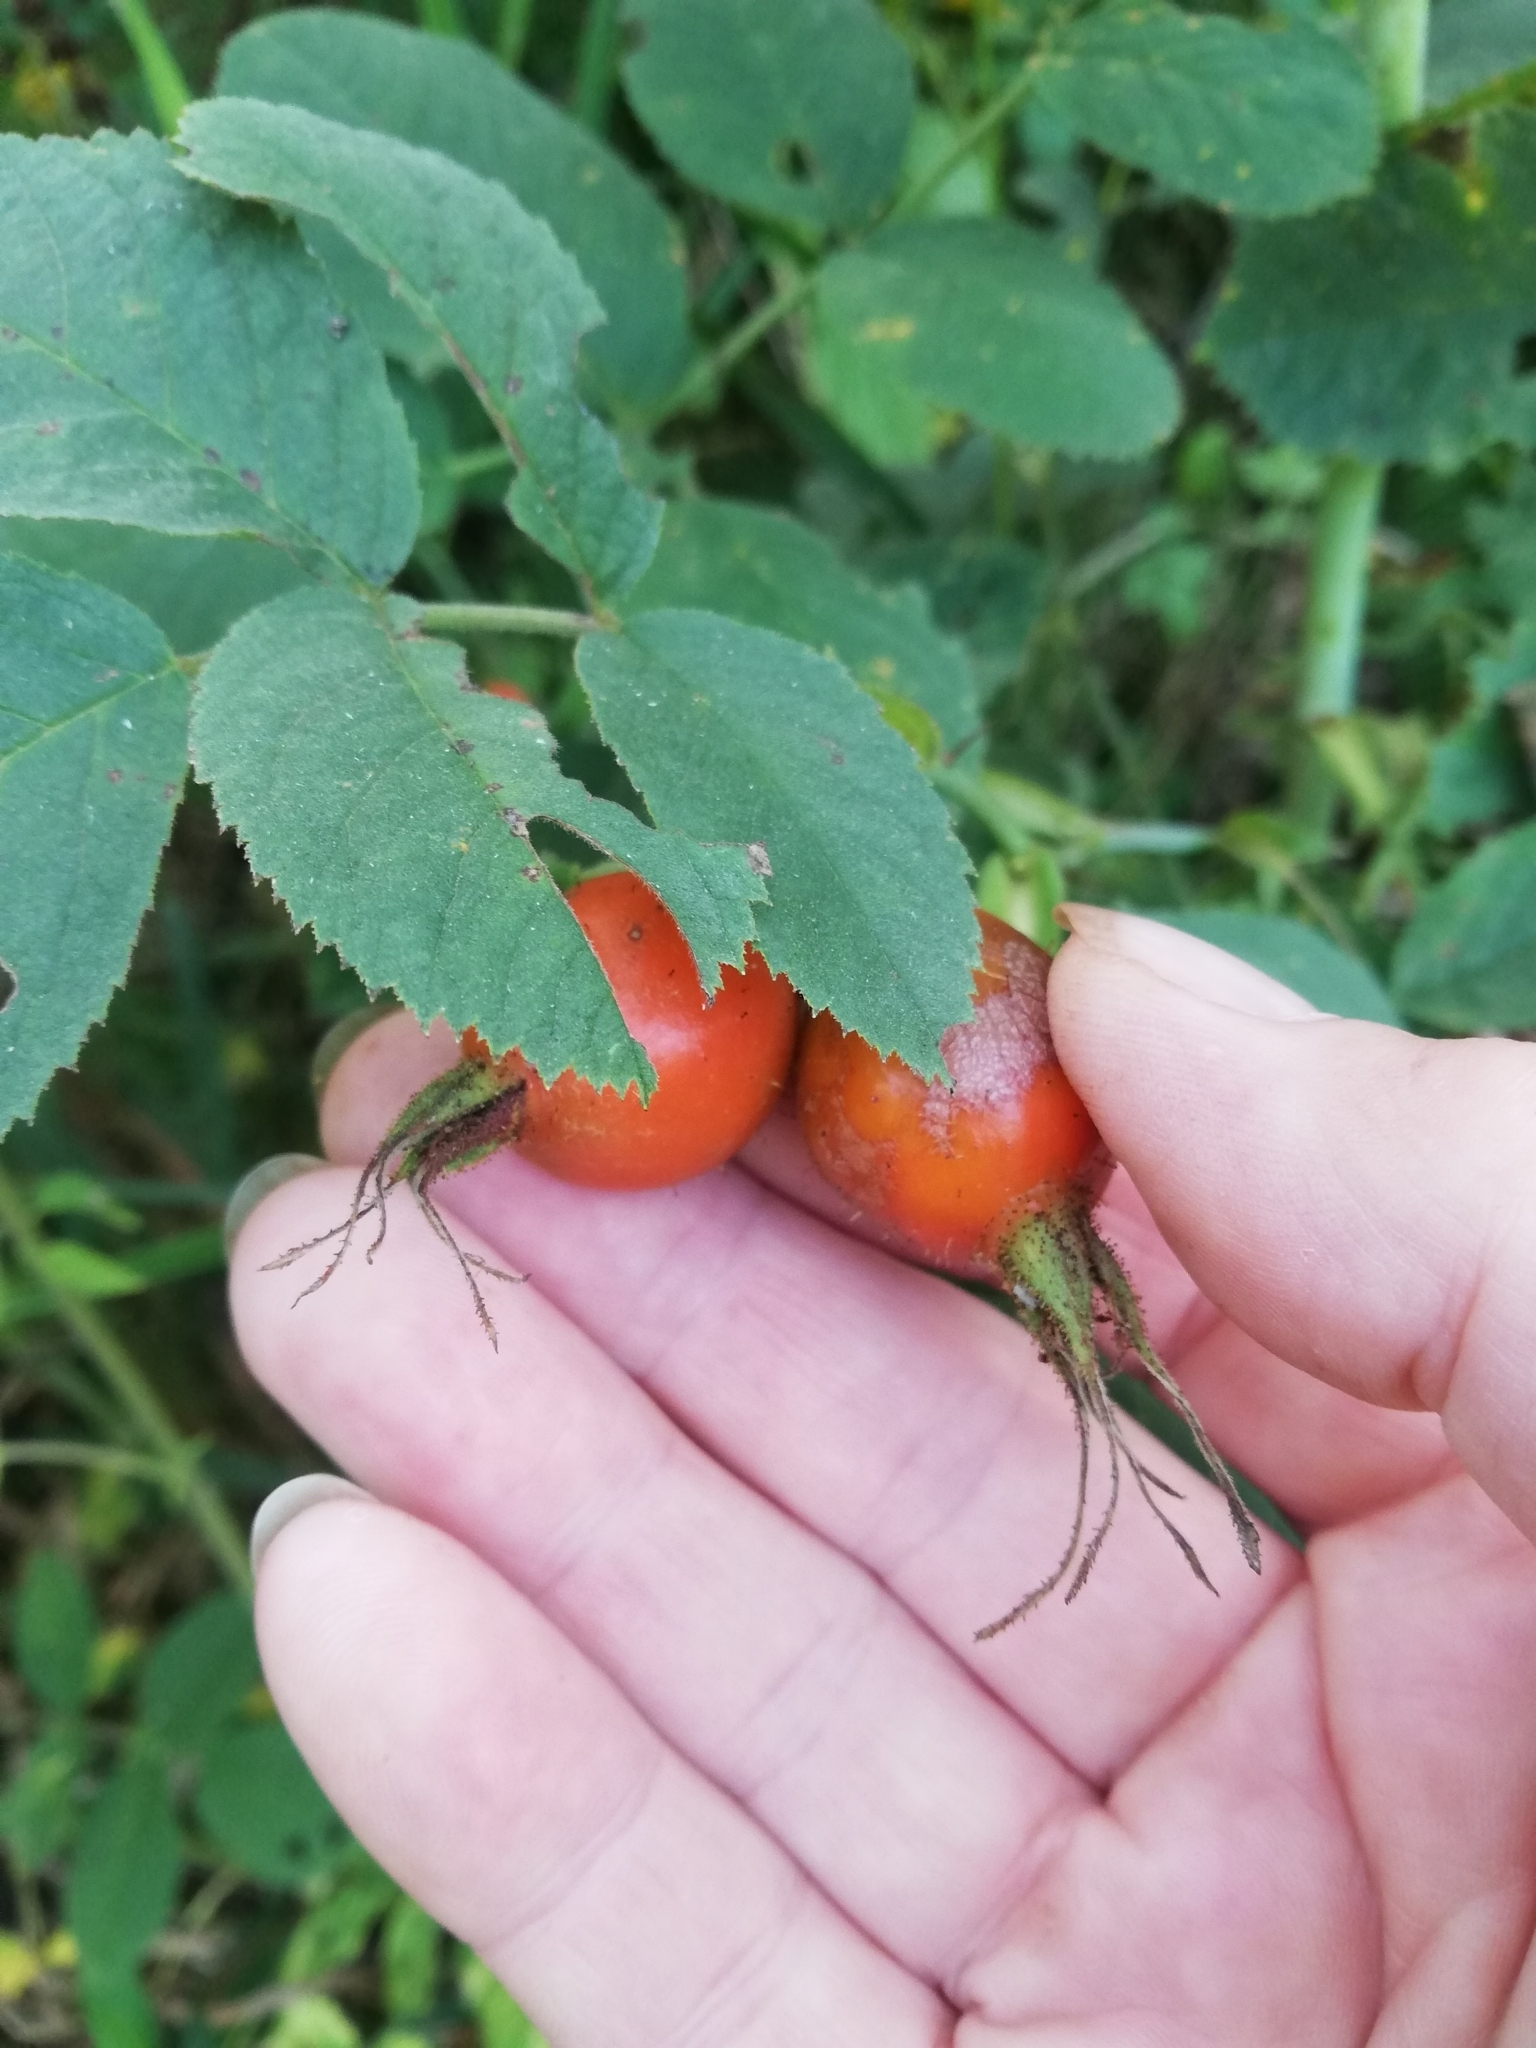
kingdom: Plantae
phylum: Tracheophyta
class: Magnoliopsida
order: Rosales
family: Rosaceae
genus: Rosa
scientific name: Rosa villosa
